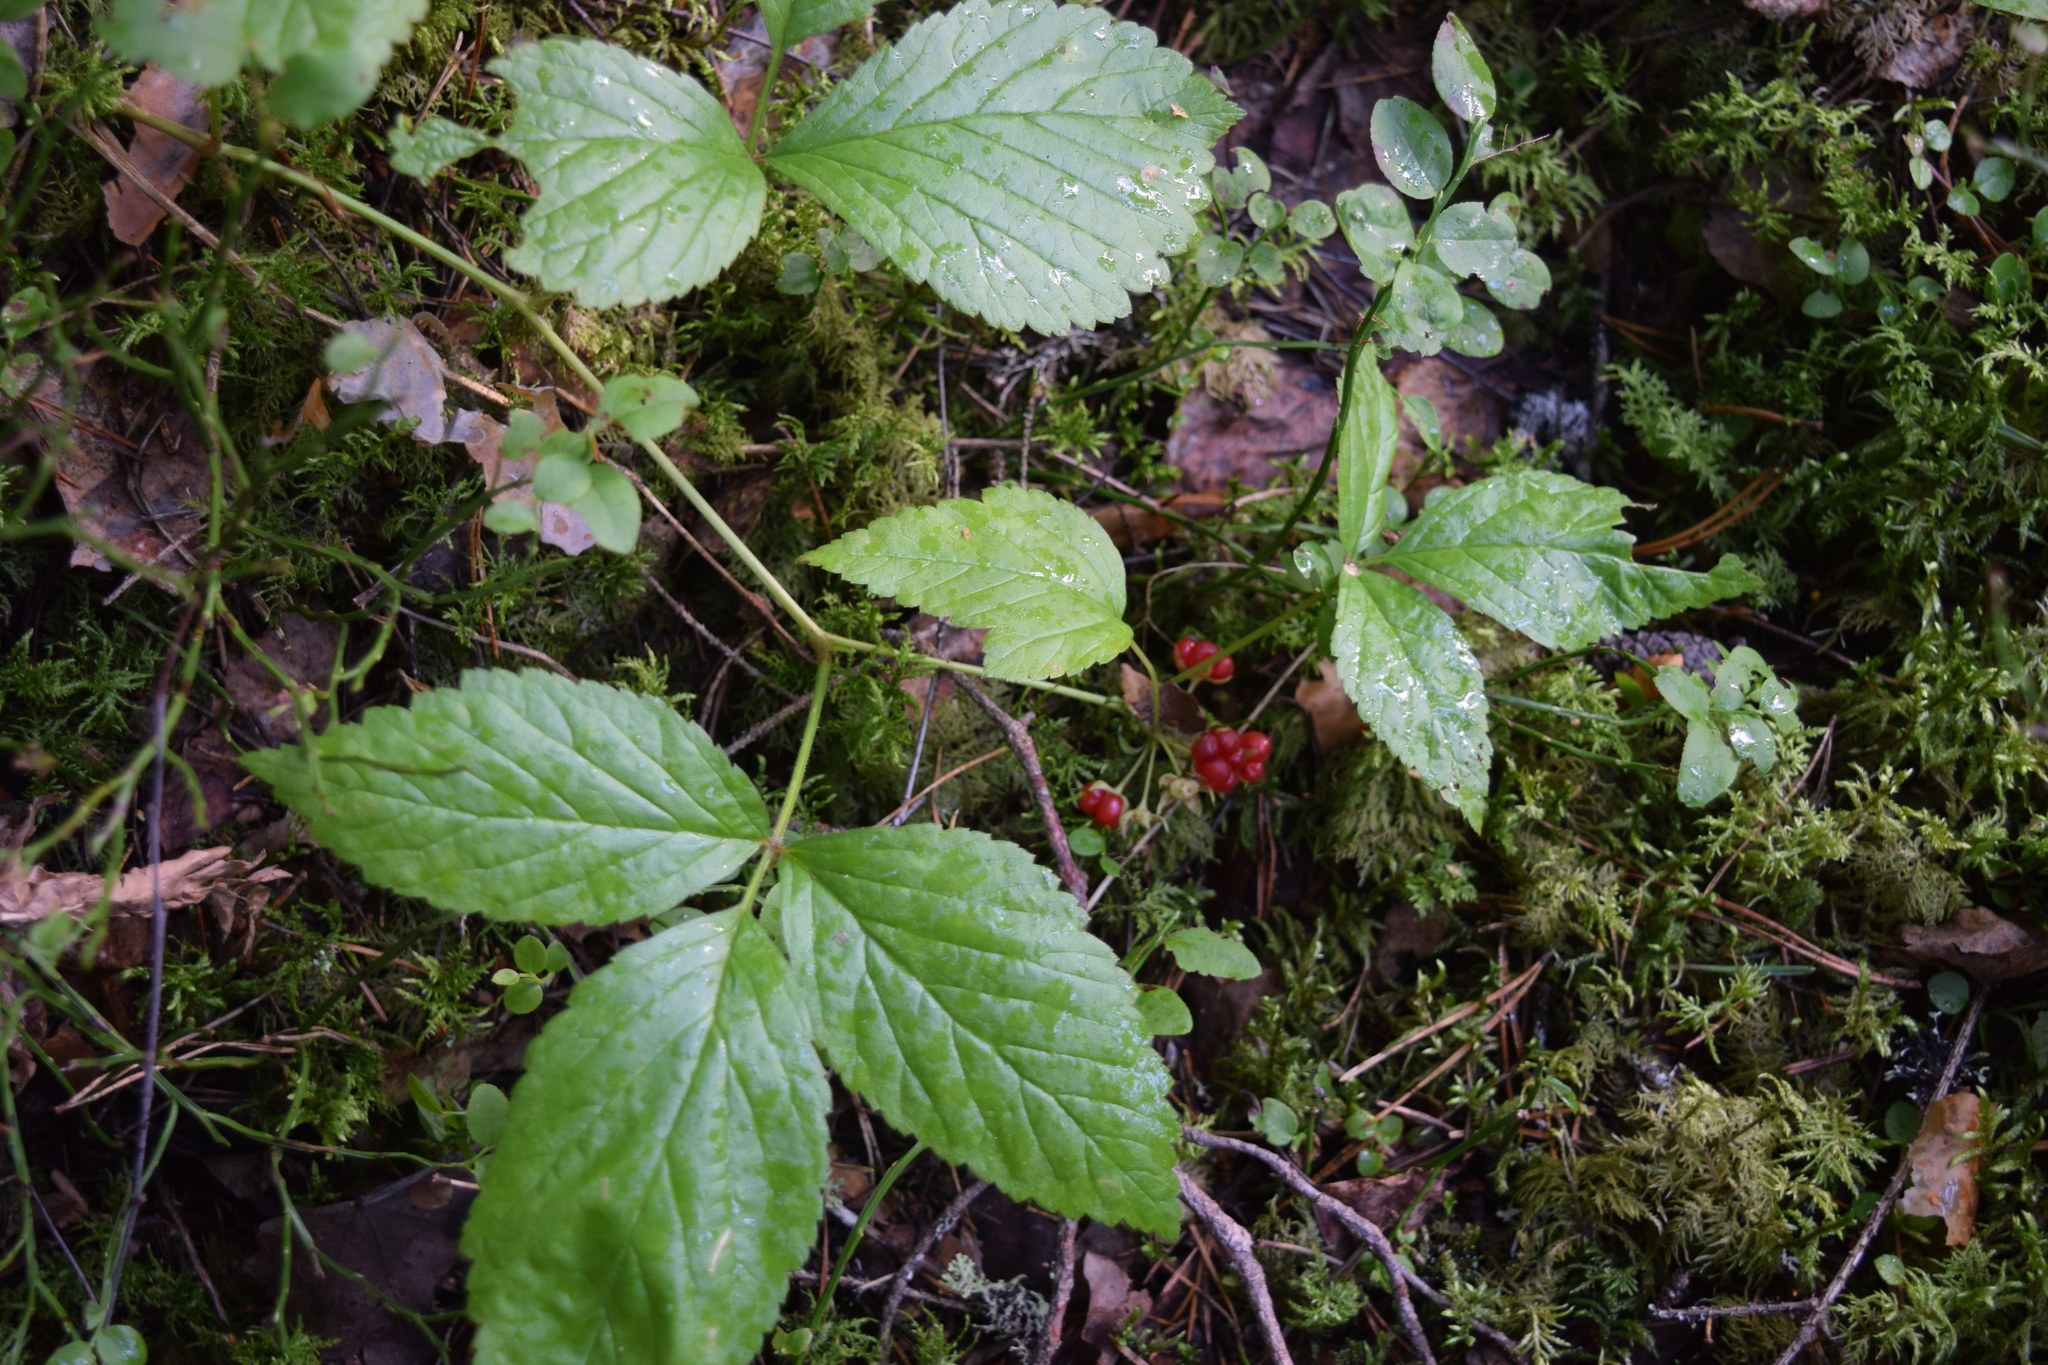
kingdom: Plantae
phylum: Tracheophyta
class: Magnoliopsida
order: Rosales
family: Rosaceae
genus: Rubus
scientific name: Rubus saxatilis
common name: Stone bramble
